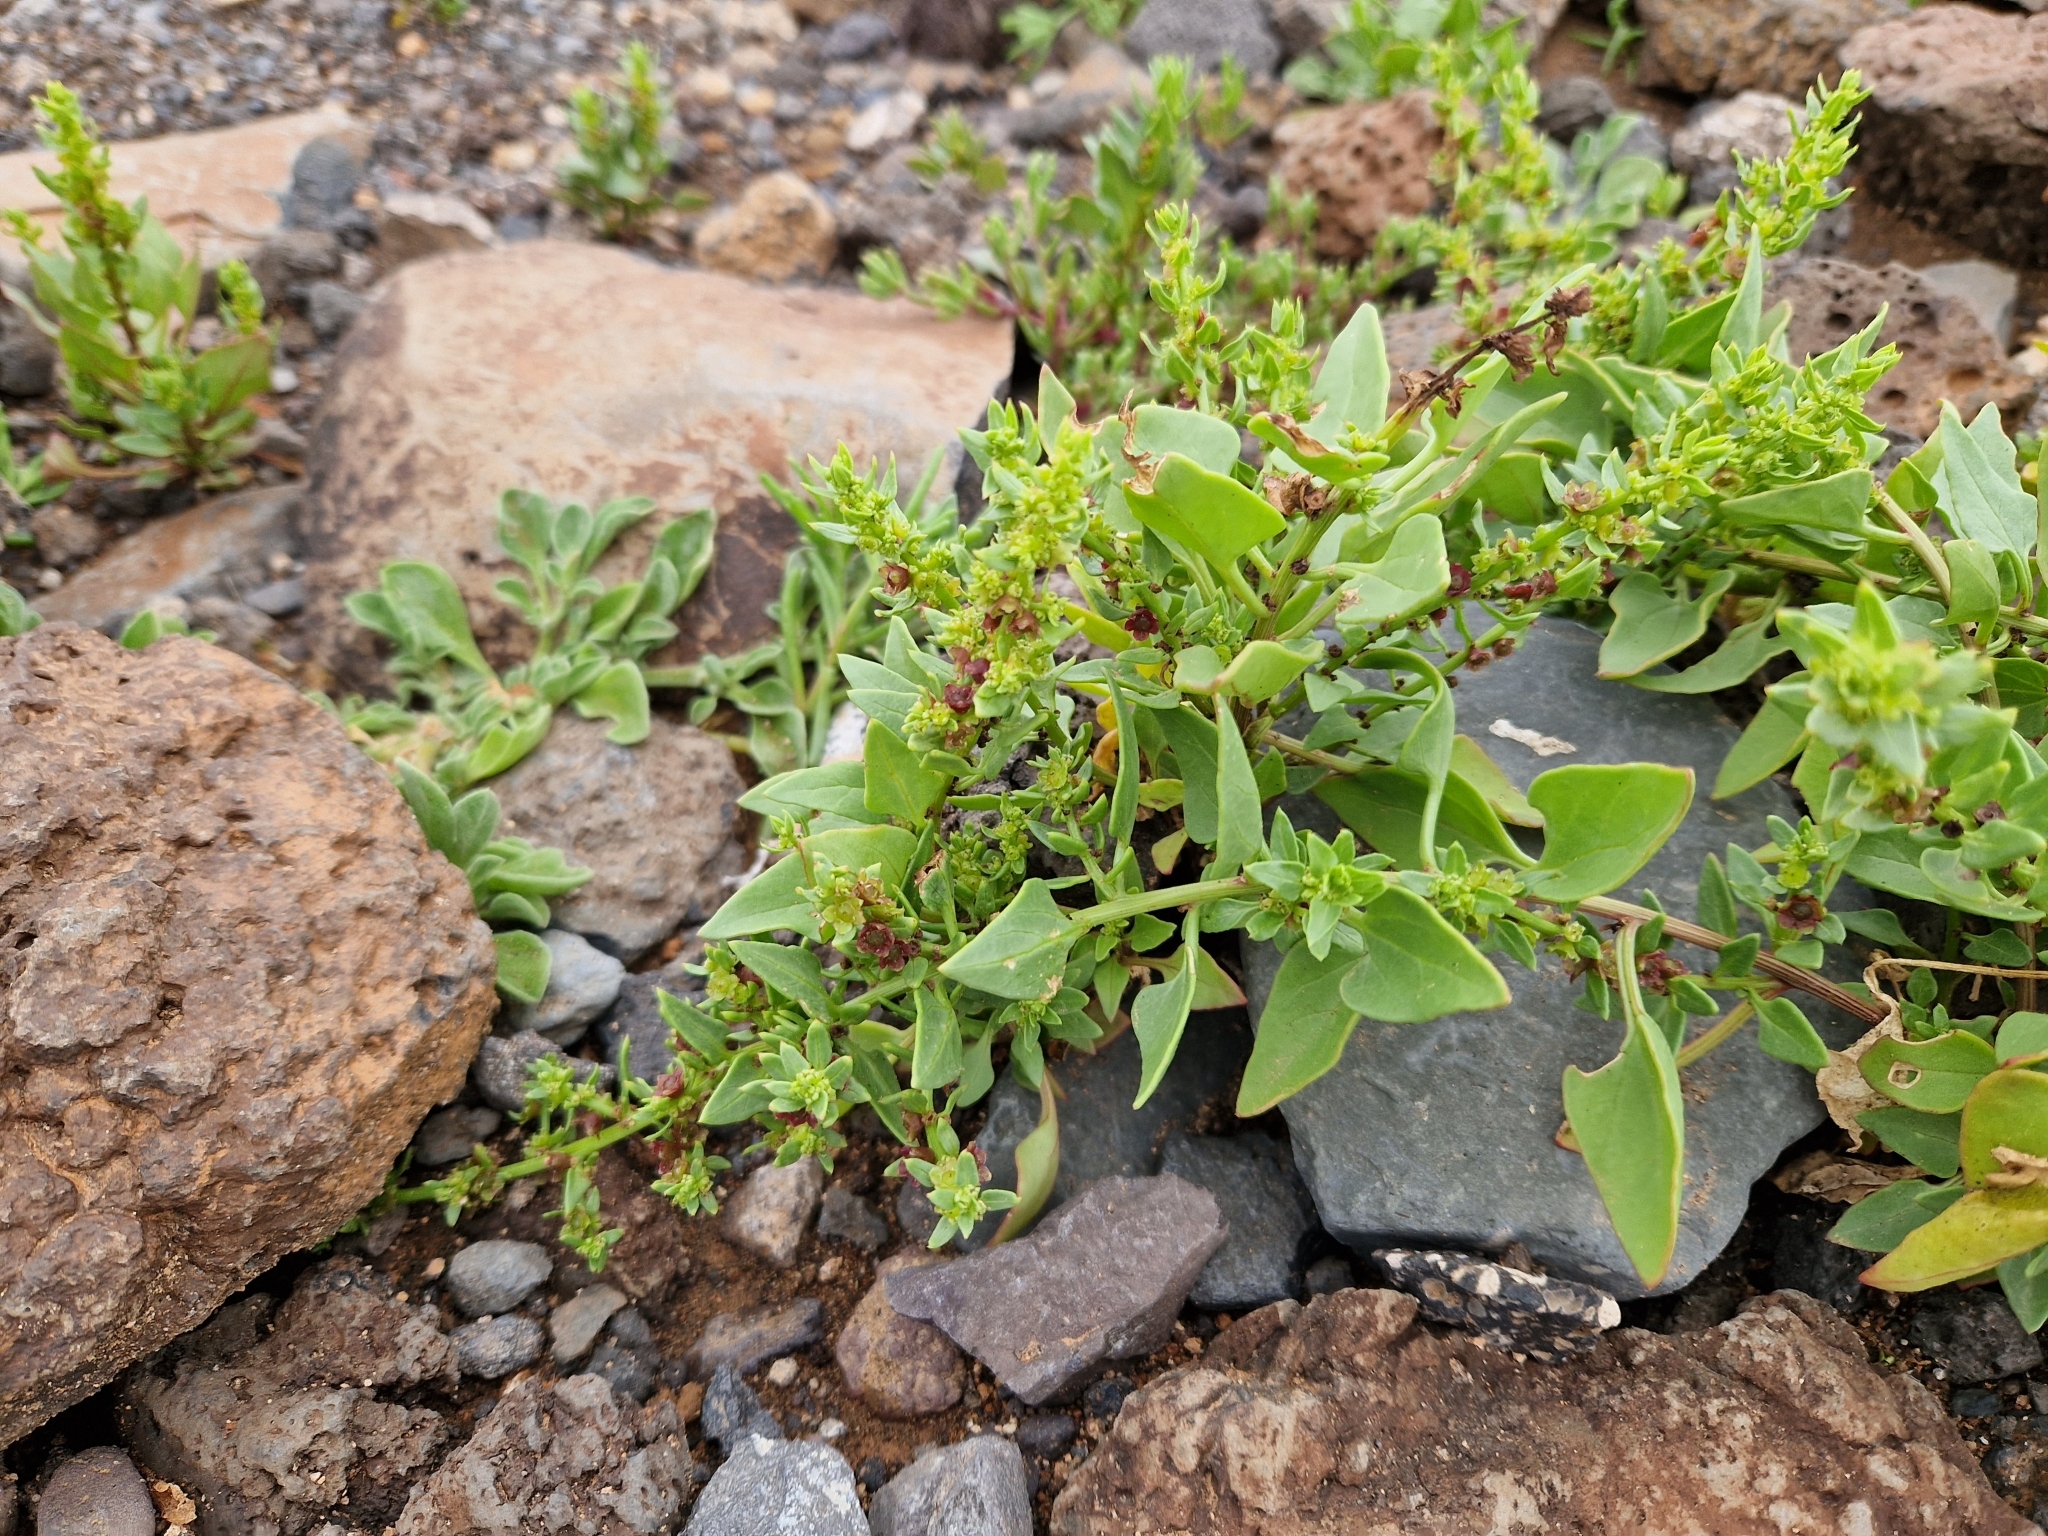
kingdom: Plantae
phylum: Tracheophyta
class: Magnoliopsida
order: Caryophyllales
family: Amaranthaceae
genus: Patellifolia
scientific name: Patellifolia procumbens
